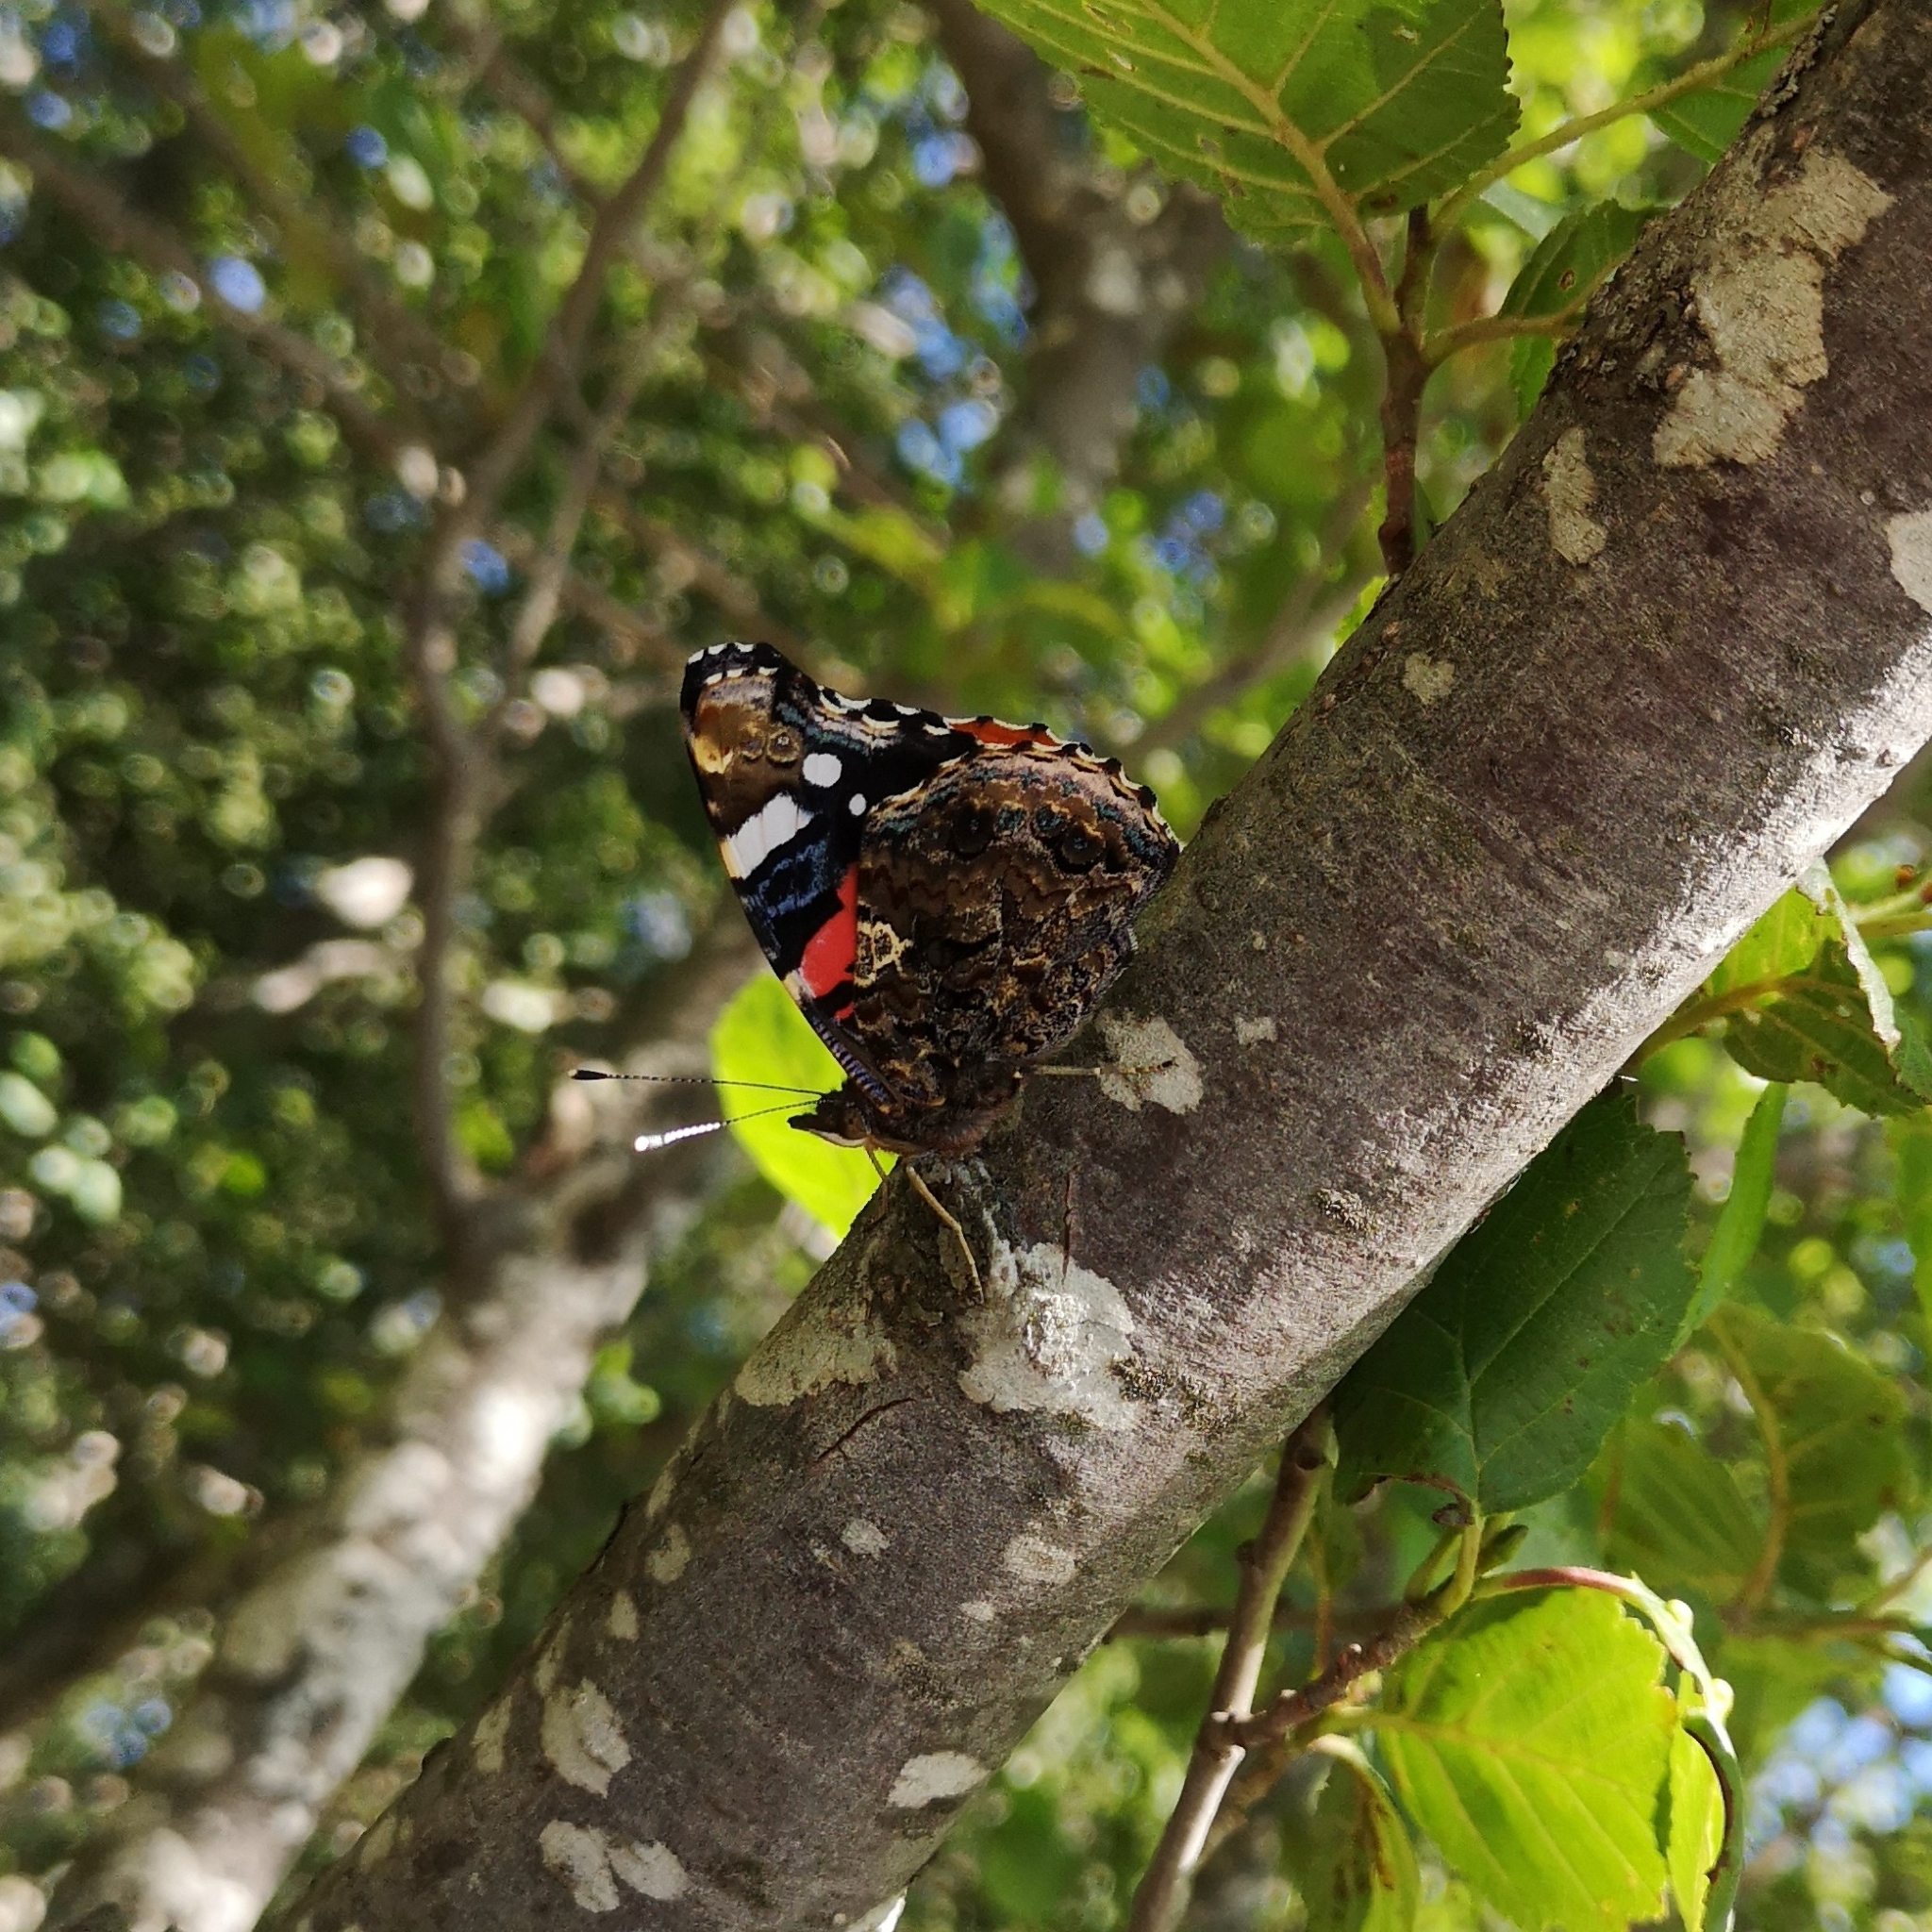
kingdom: Animalia
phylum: Arthropoda
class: Insecta
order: Lepidoptera
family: Nymphalidae
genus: Vanessa
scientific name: Vanessa atalanta
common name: Red admiral
